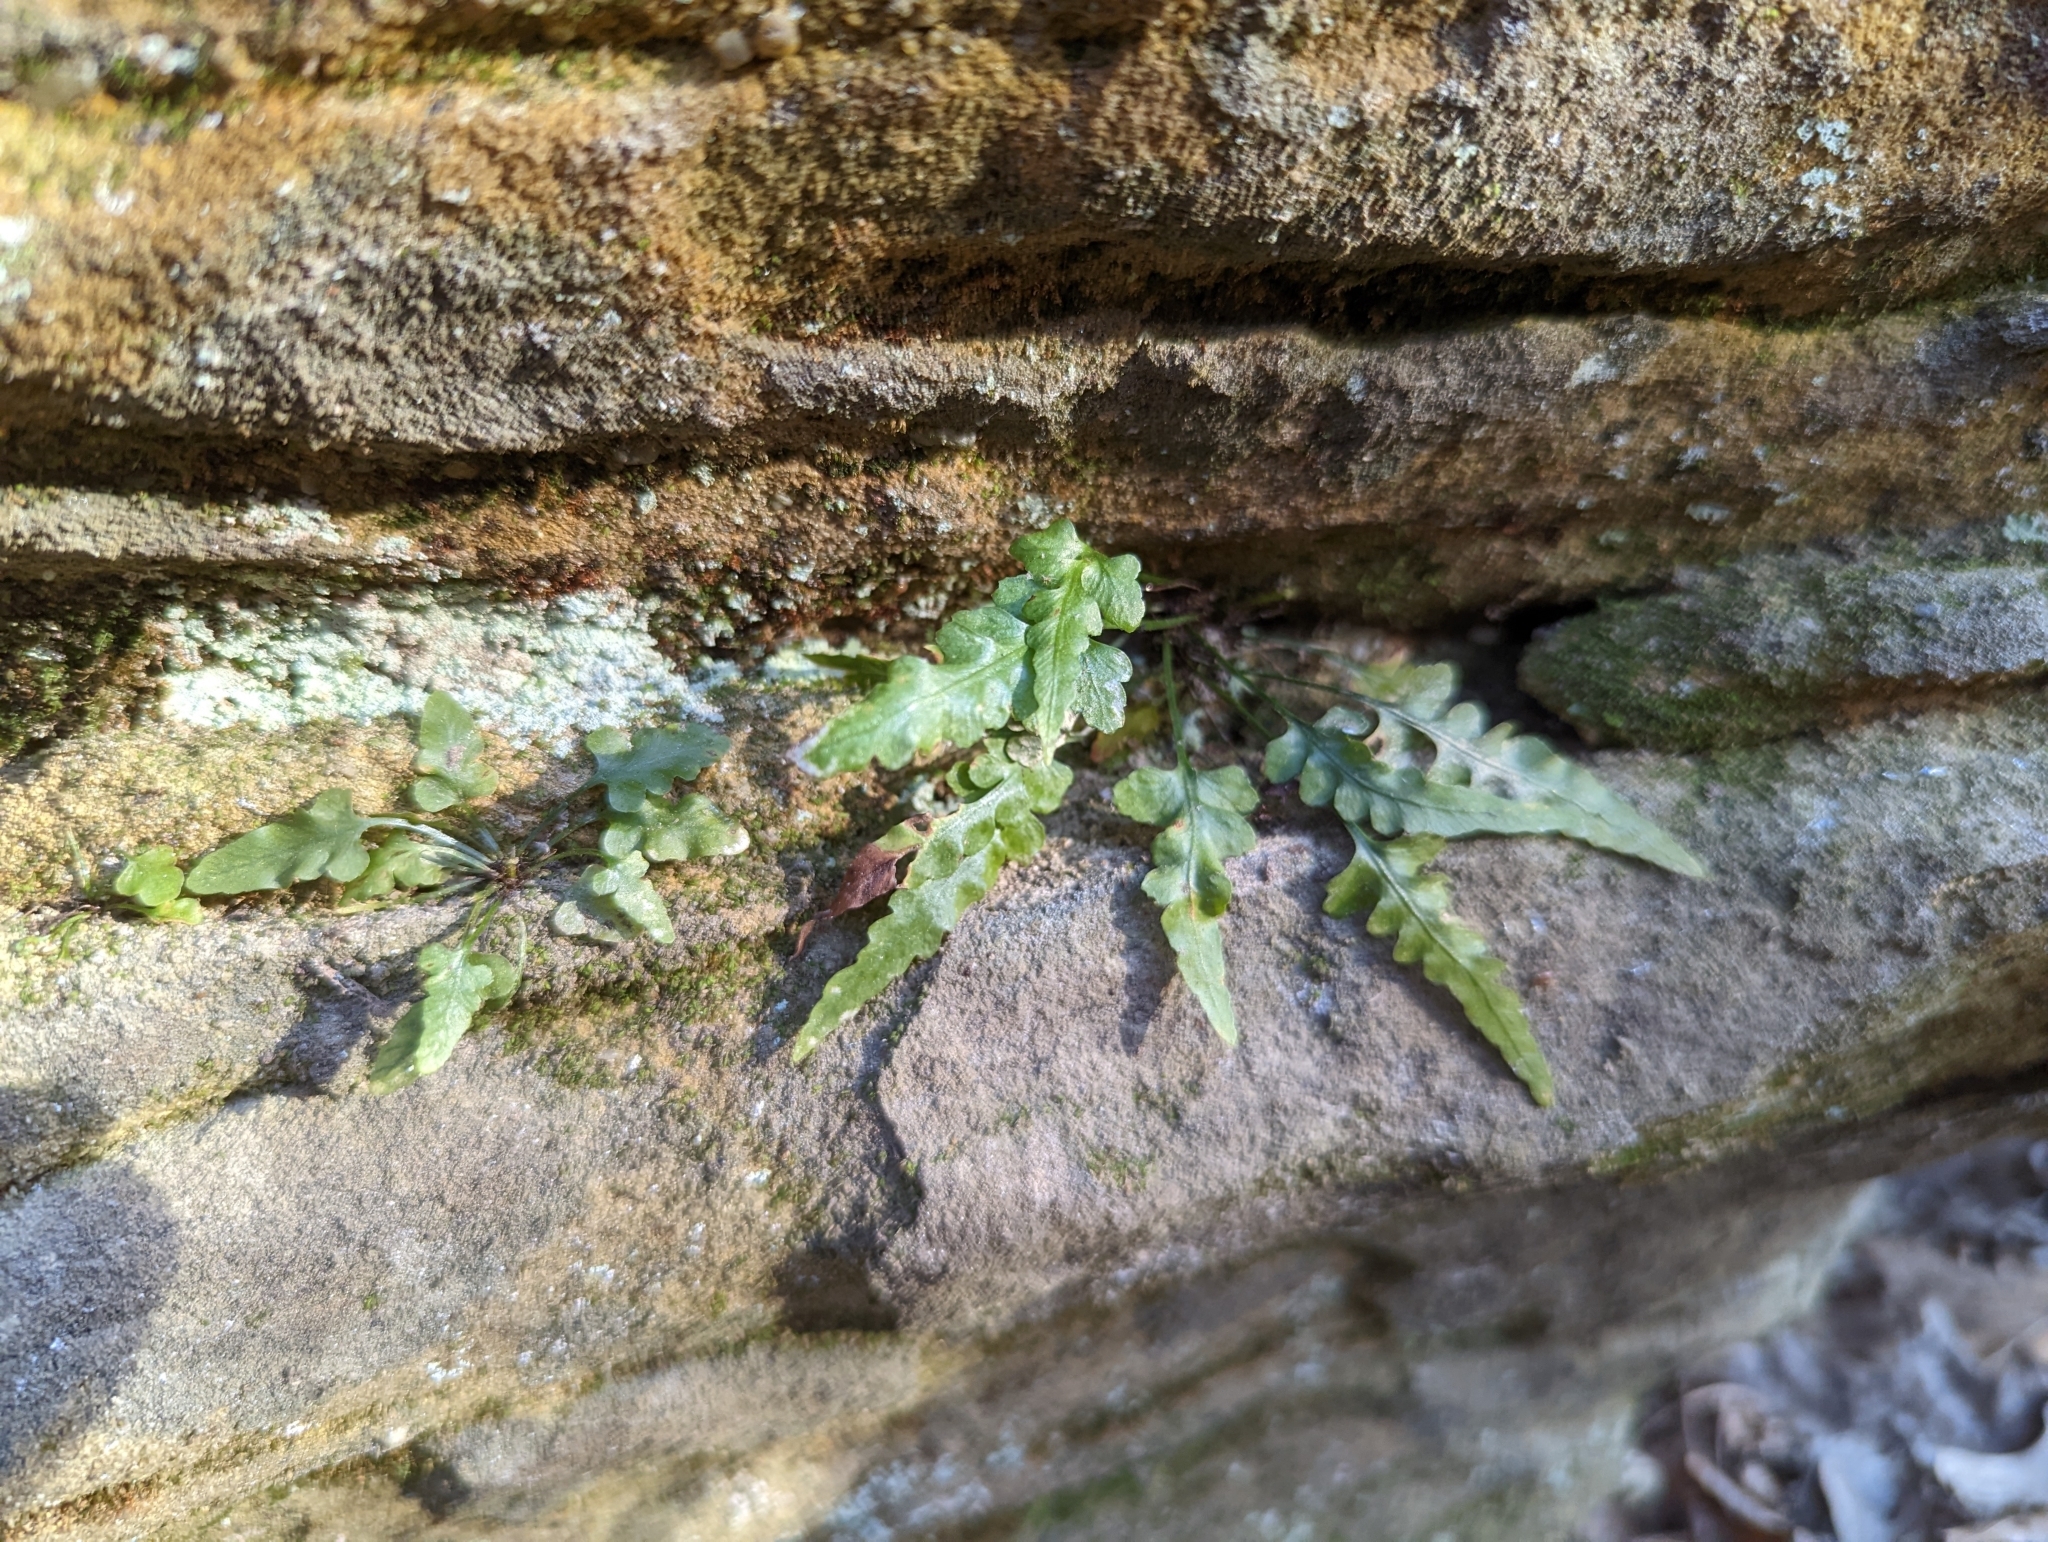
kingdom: Plantae
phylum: Tracheophyta
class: Polypodiopsida
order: Polypodiales
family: Aspleniaceae
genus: Asplenium
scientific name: Asplenium pinnatifidum
